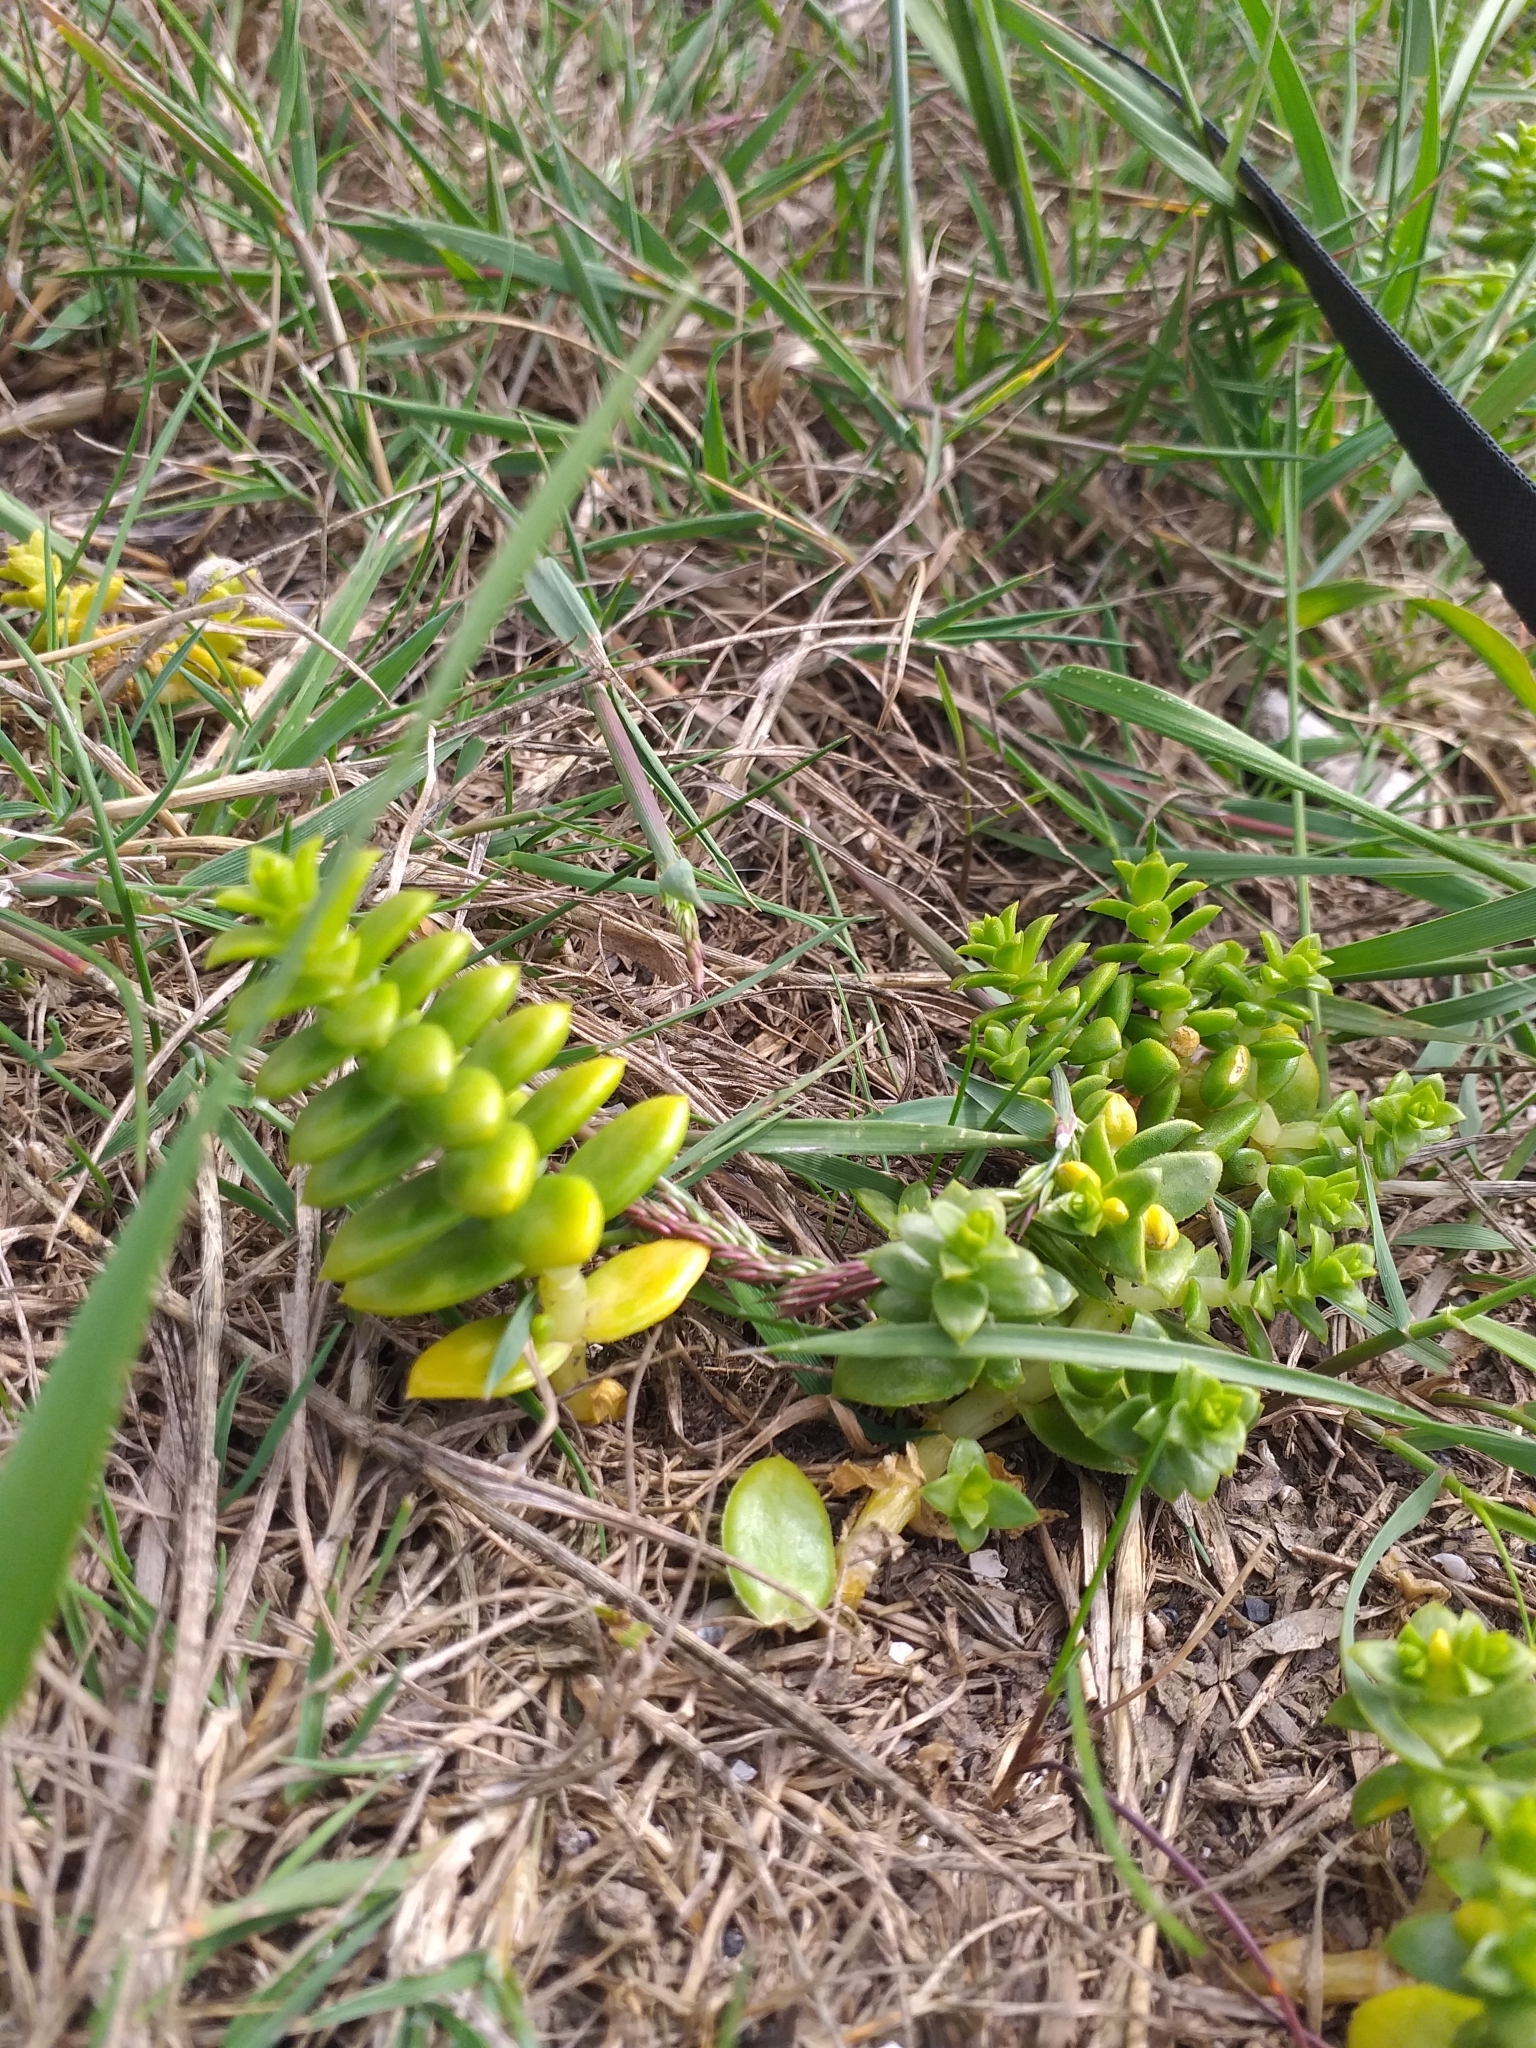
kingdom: Plantae
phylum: Tracheophyta
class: Magnoliopsida
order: Caryophyllales
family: Caryophyllaceae
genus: Honckenya
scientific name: Honckenya peploides
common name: Sea sandwort
